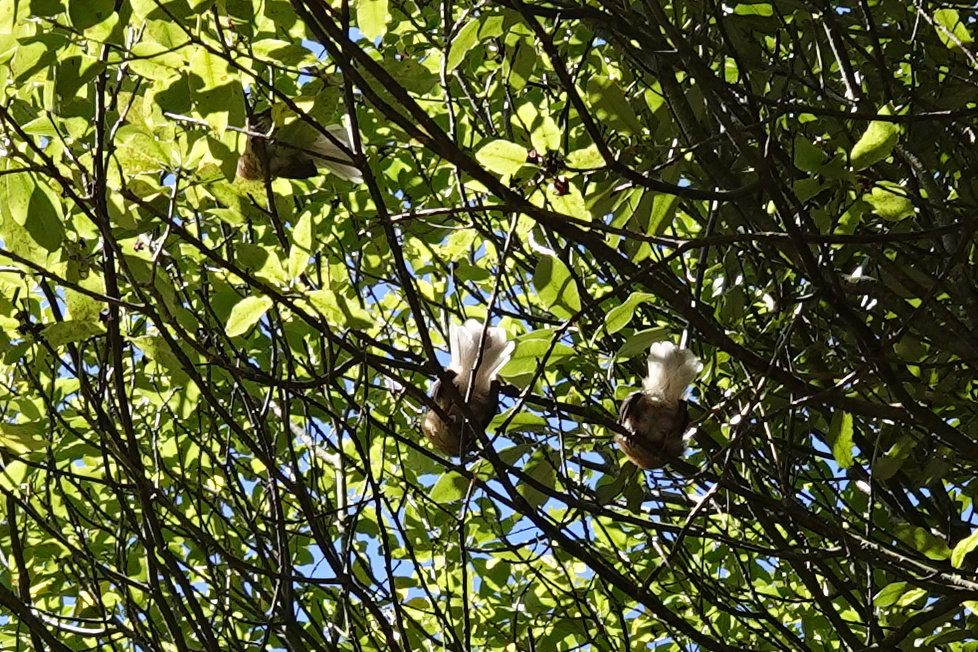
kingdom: Animalia
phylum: Chordata
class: Aves
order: Passeriformes
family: Rhipiduridae
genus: Rhipidura
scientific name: Rhipidura fuliginosa
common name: New zealand fantail
